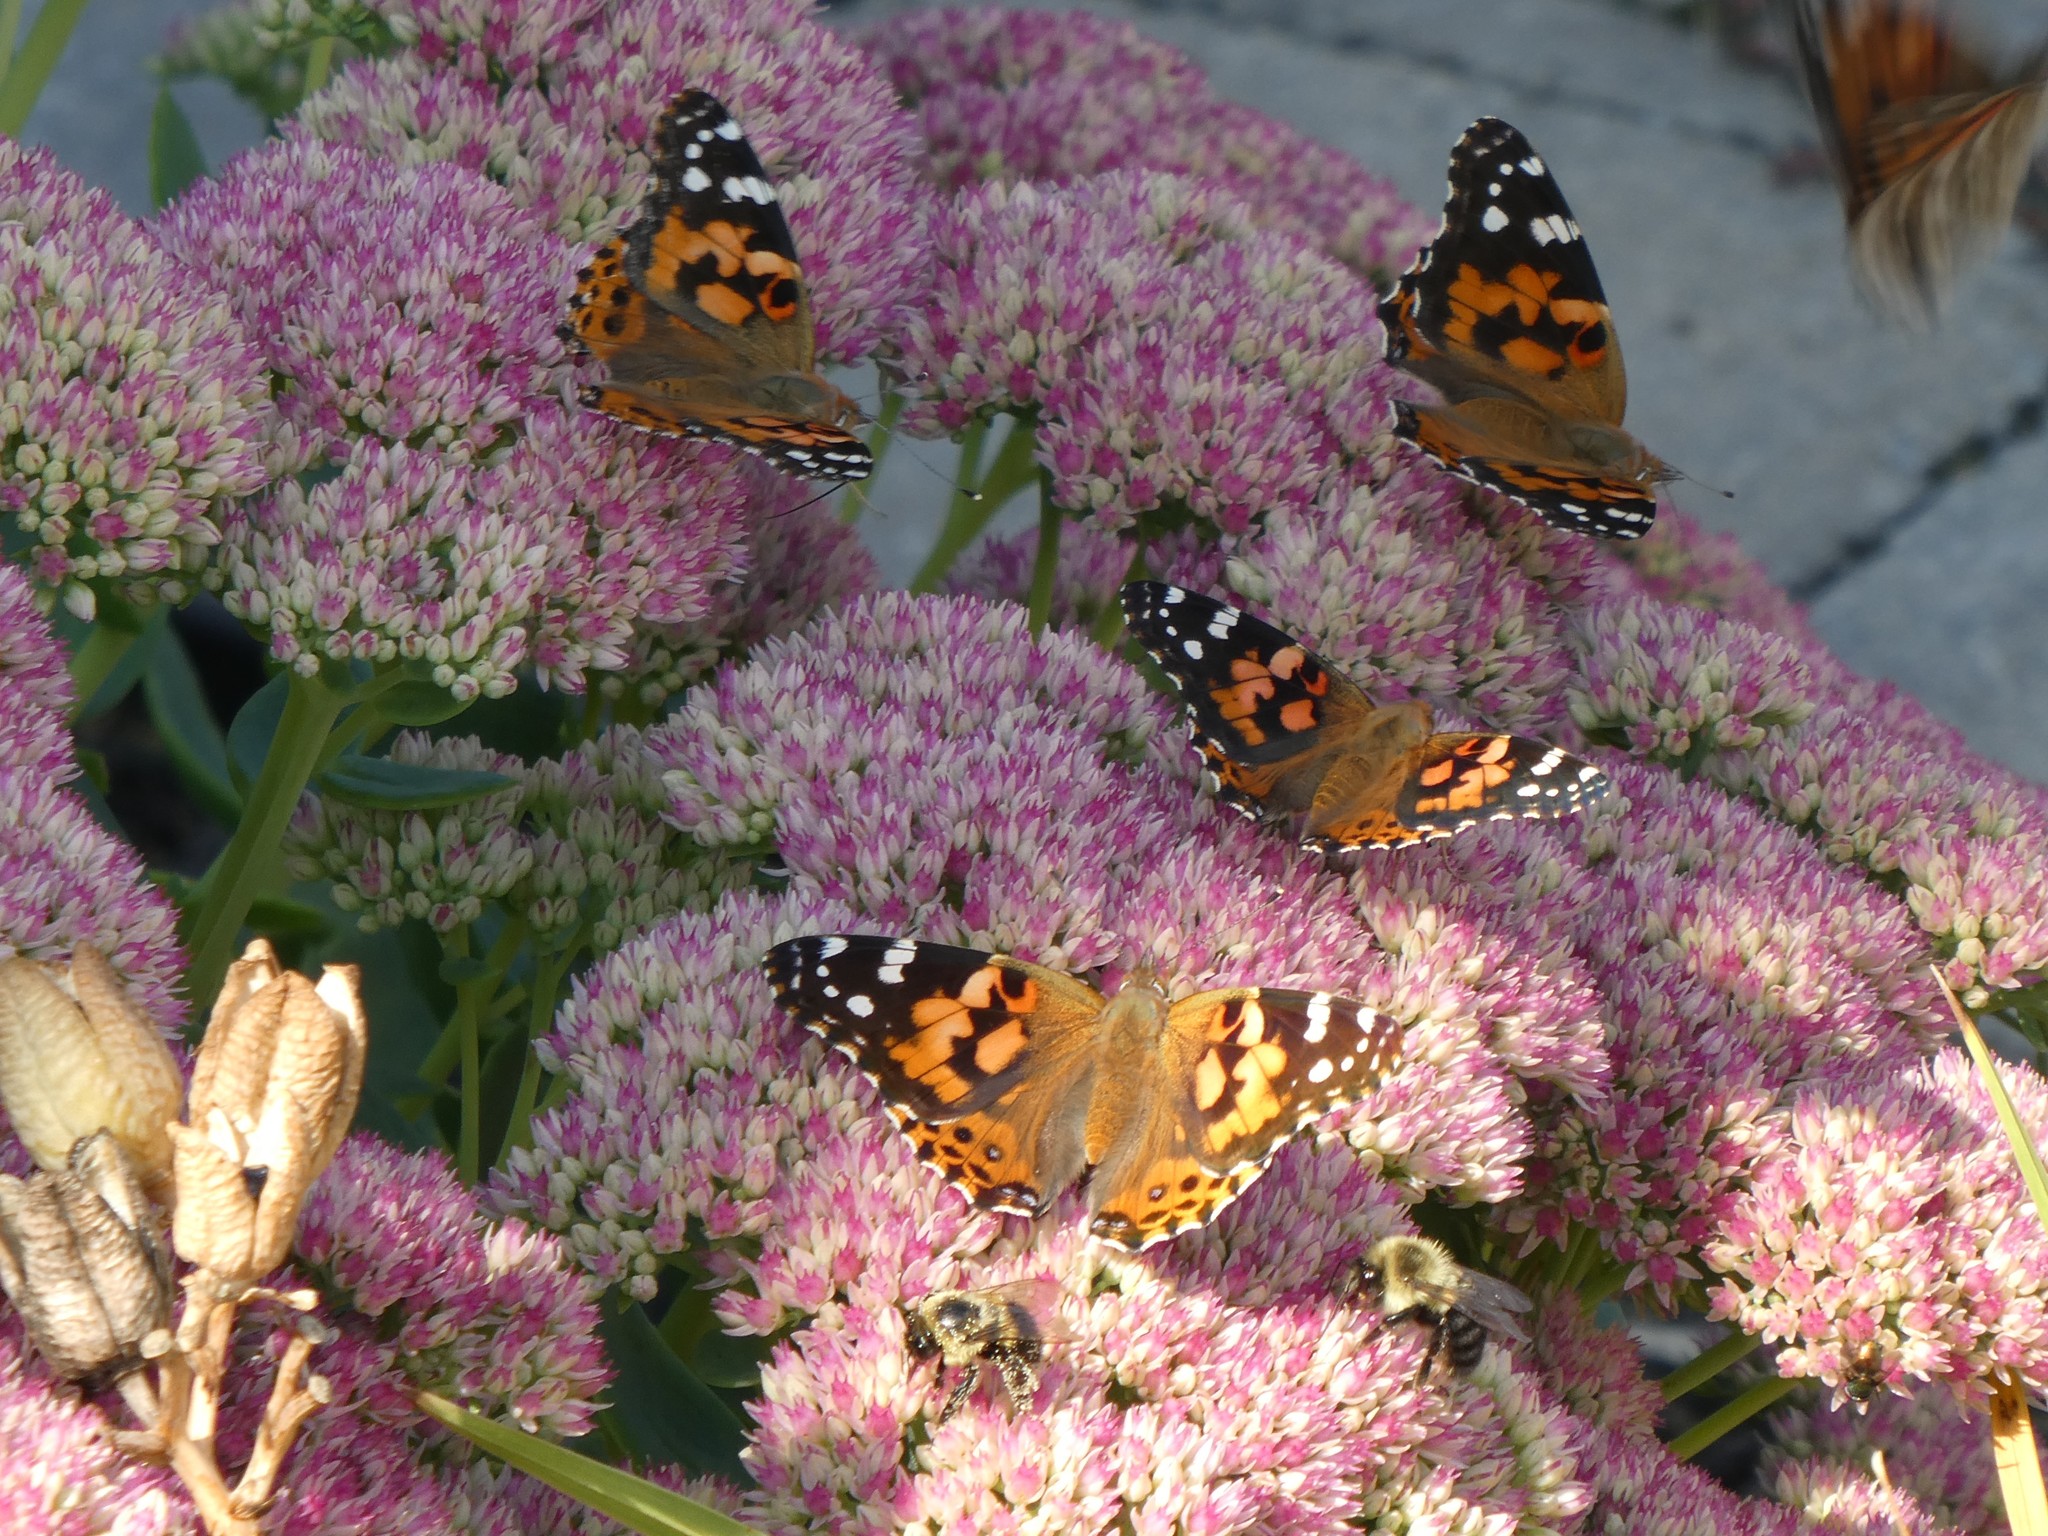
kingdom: Animalia
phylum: Arthropoda
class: Insecta
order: Lepidoptera
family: Nymphalidae
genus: Vanessa
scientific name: Vanessa cardui
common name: Painted lady
